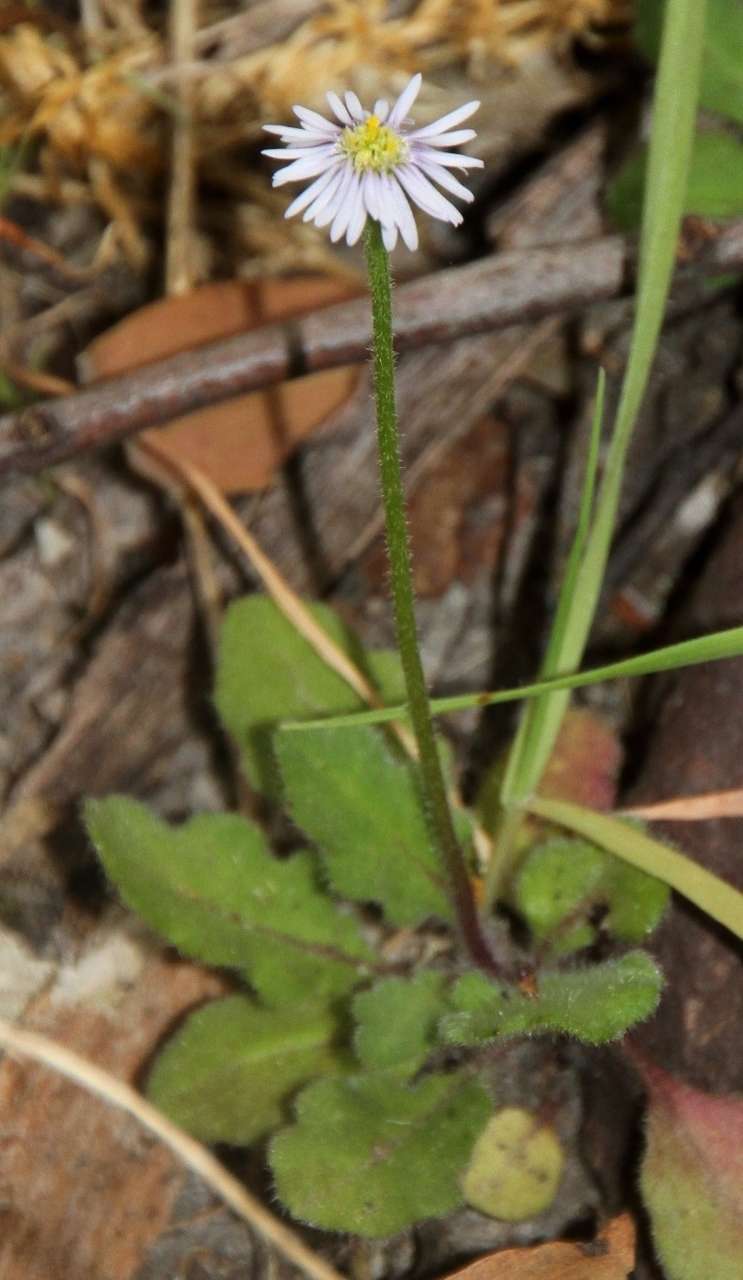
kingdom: Plantae
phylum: Tracheophyta
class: Magnoliopsida
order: Asterales
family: Asteraceae
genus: Lagenophora
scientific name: Lagenophora stipitata
